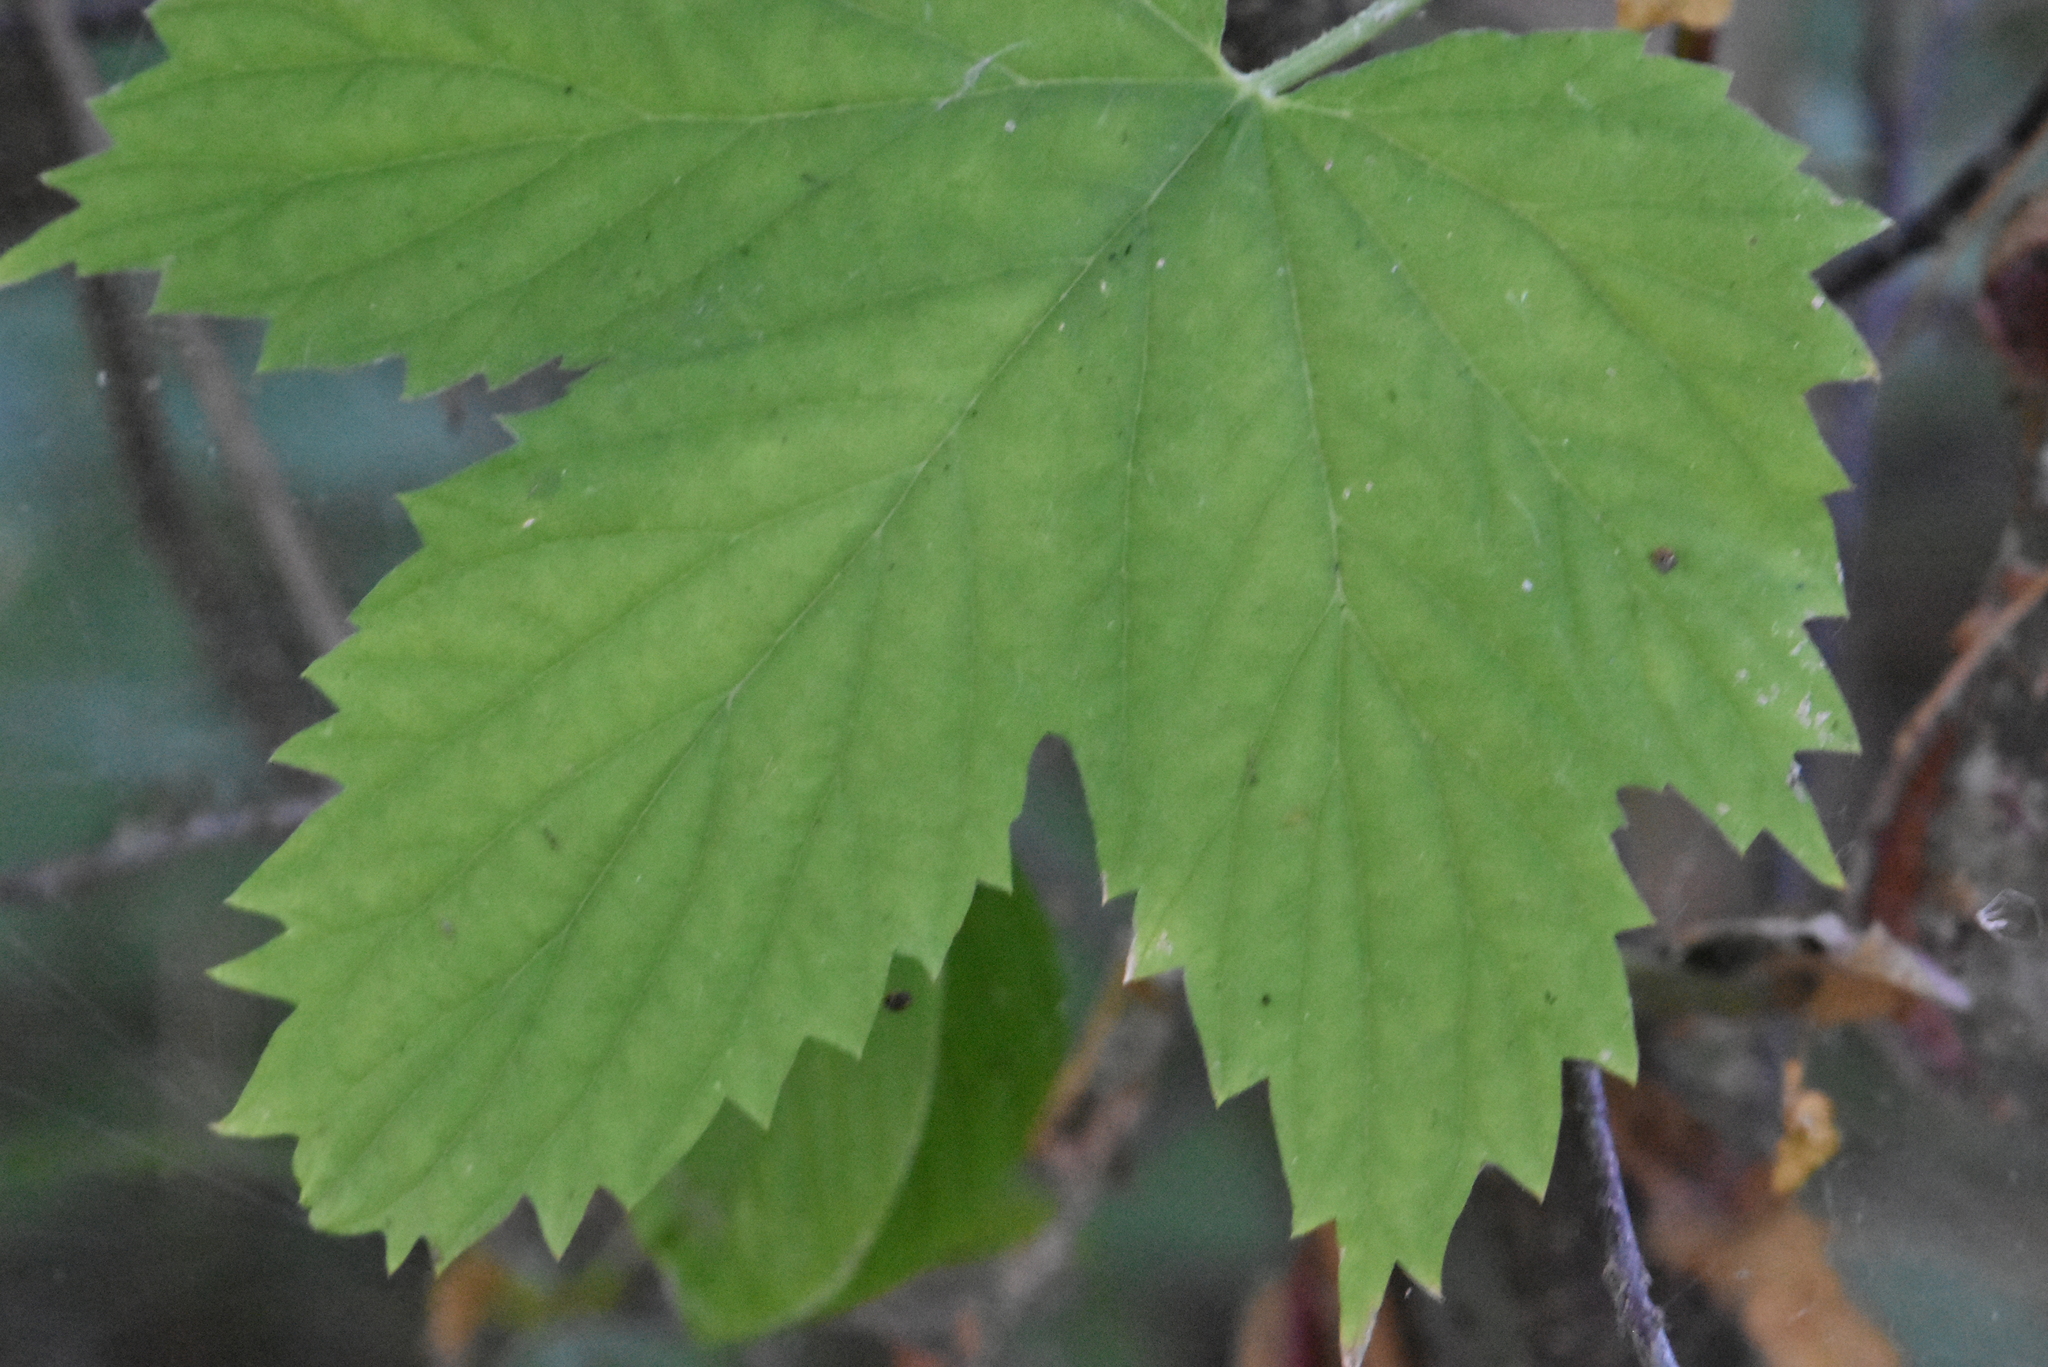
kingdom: Plantae
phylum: Tracheophyta
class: Magnoliopsida
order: Rosales
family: Cannabaceae
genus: Humulus
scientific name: Humulus lupulus
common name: Hop
